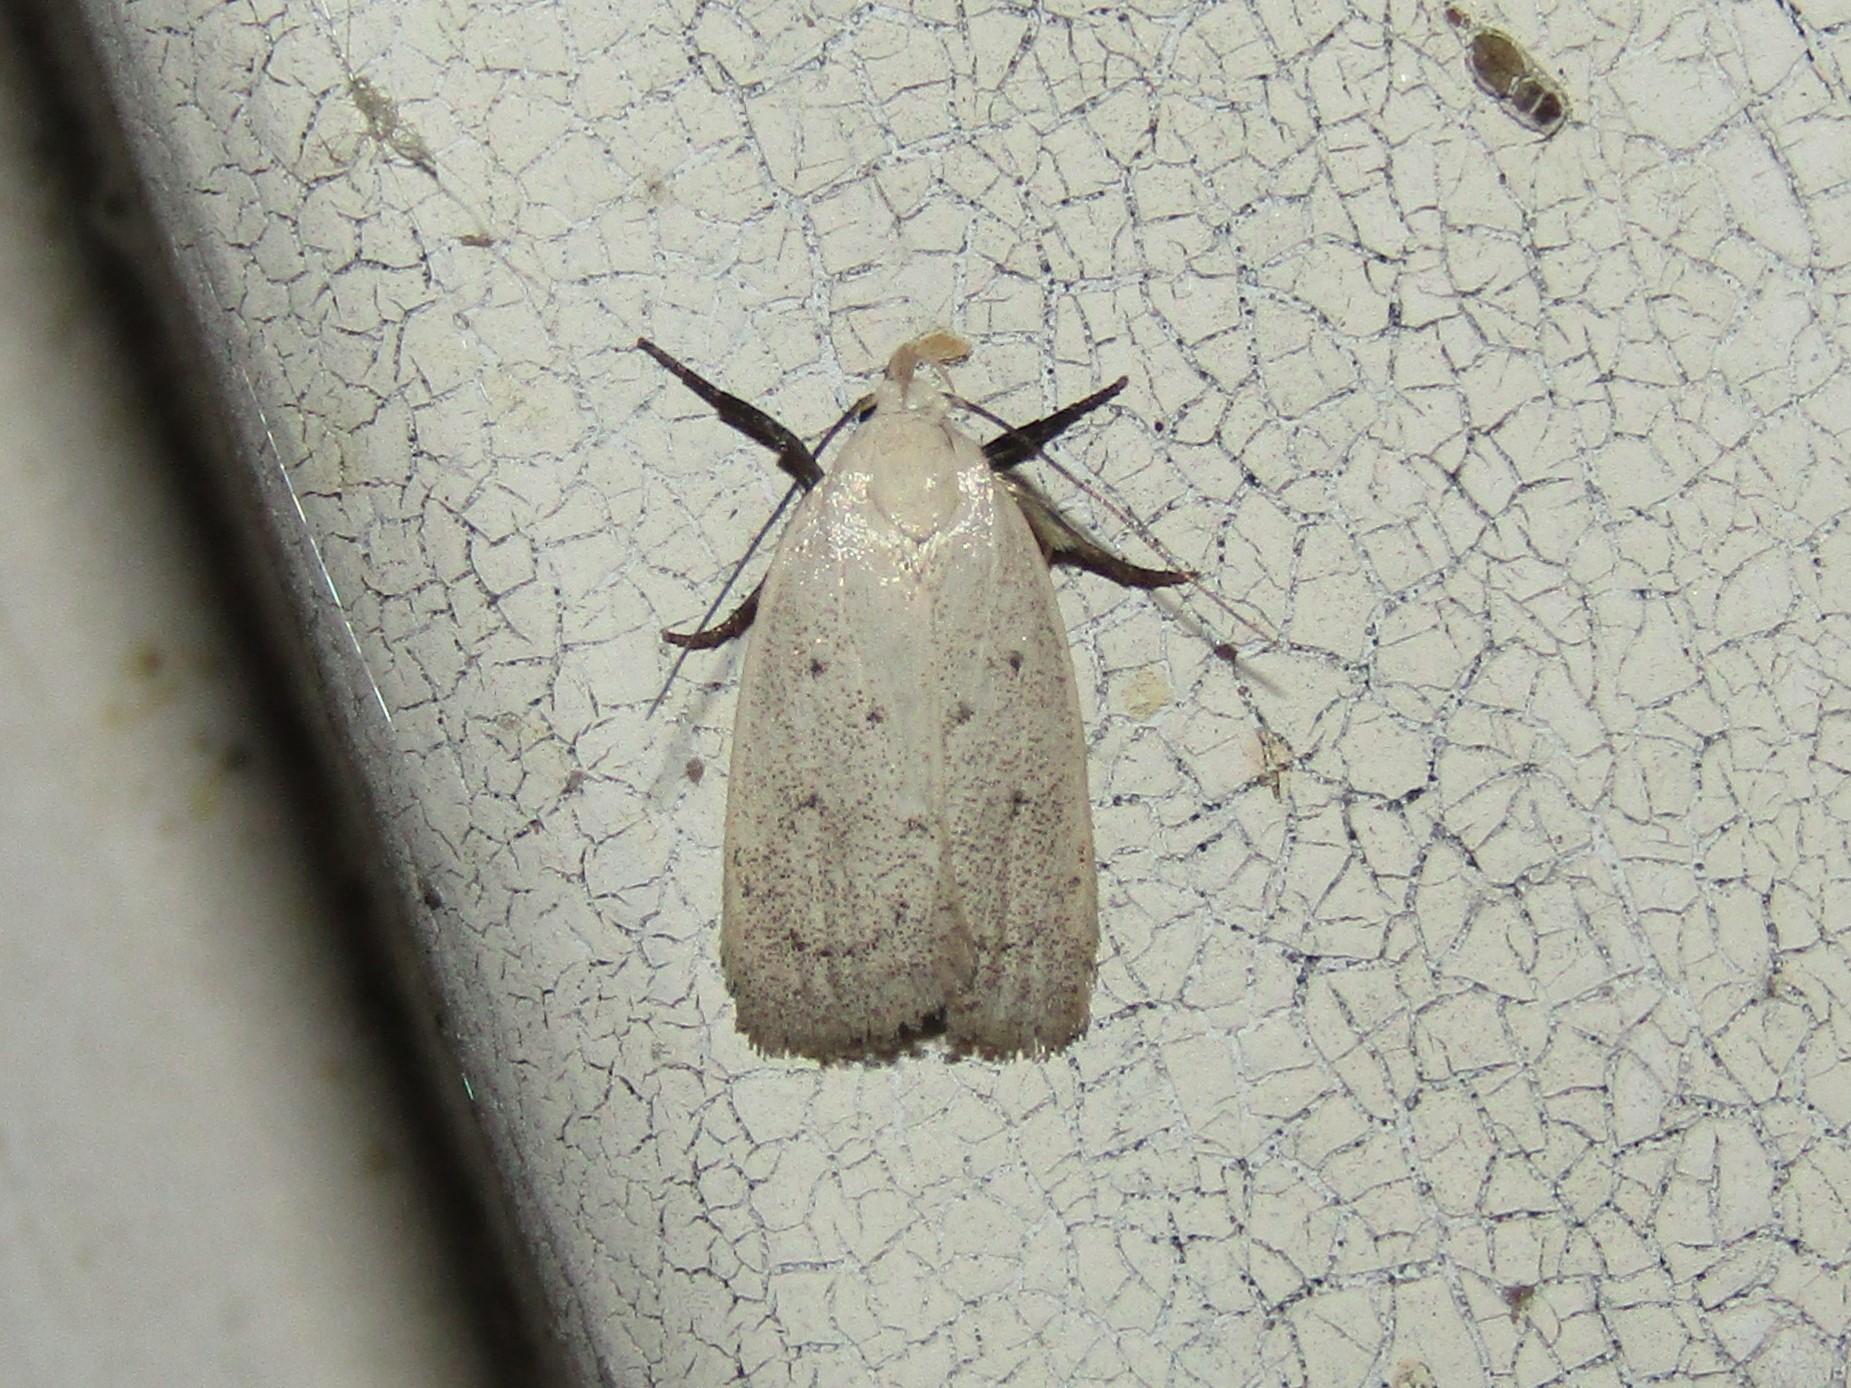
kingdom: Animalia
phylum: Arthropoda
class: Insecta
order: Lepidoptera
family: Oecophoridae
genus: Inga
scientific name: Inga cretacea
